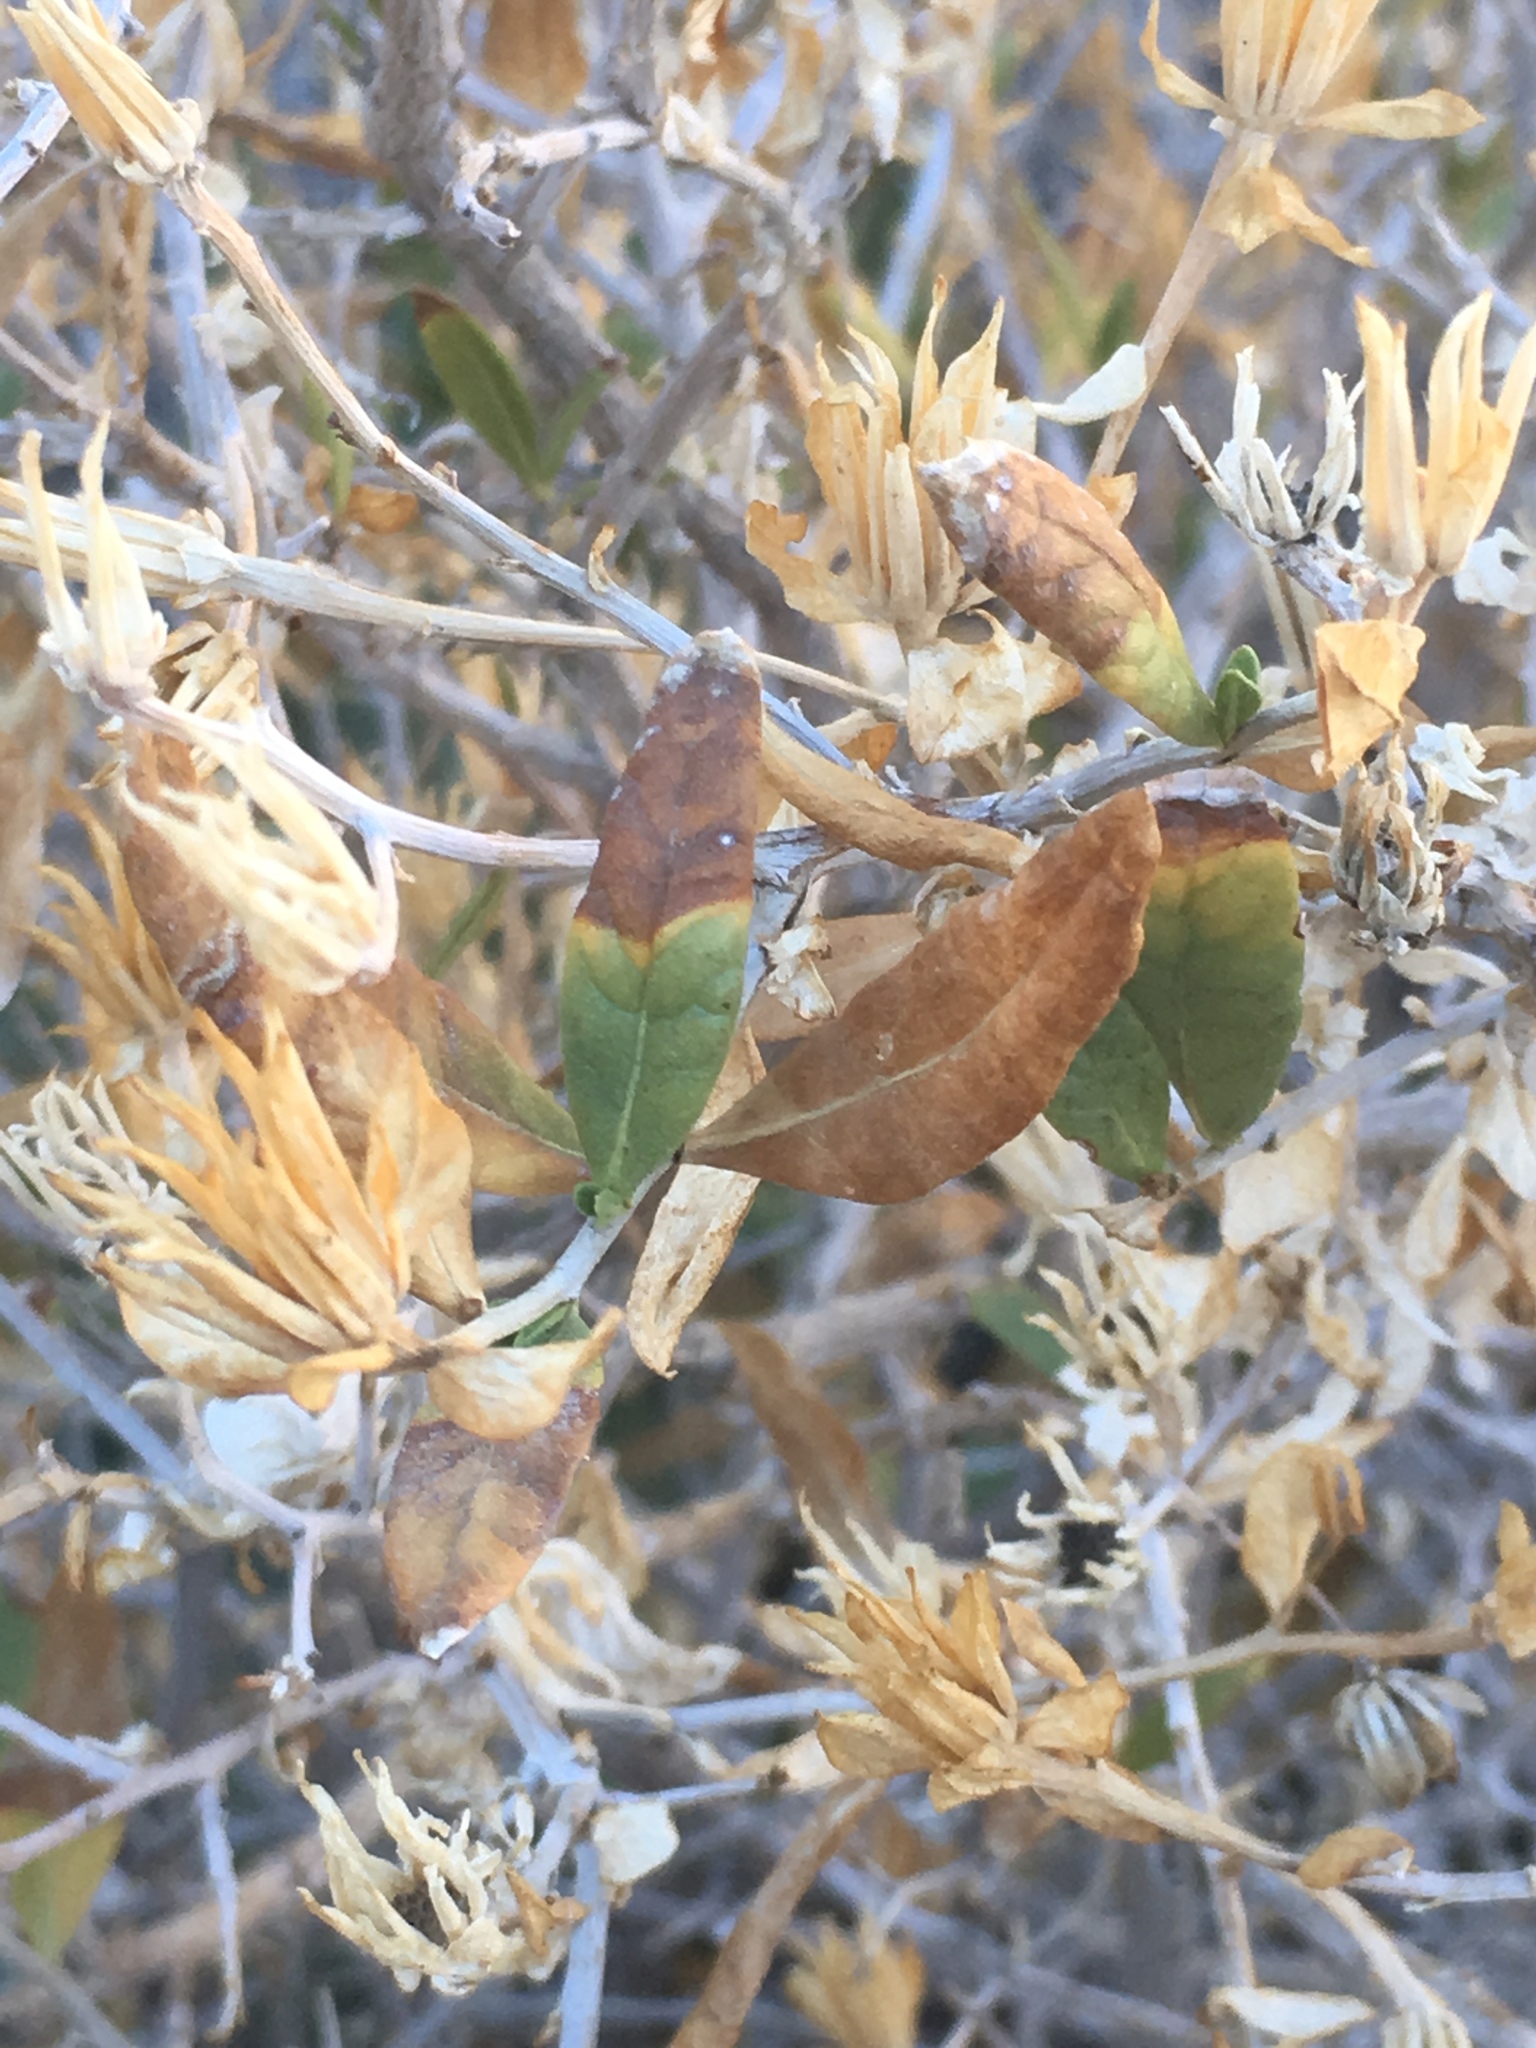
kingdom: Plantae
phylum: Tracheophyta
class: Magnoliopsida
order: Asterales
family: Asteraceae
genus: Trixis
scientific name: Trixis californica
